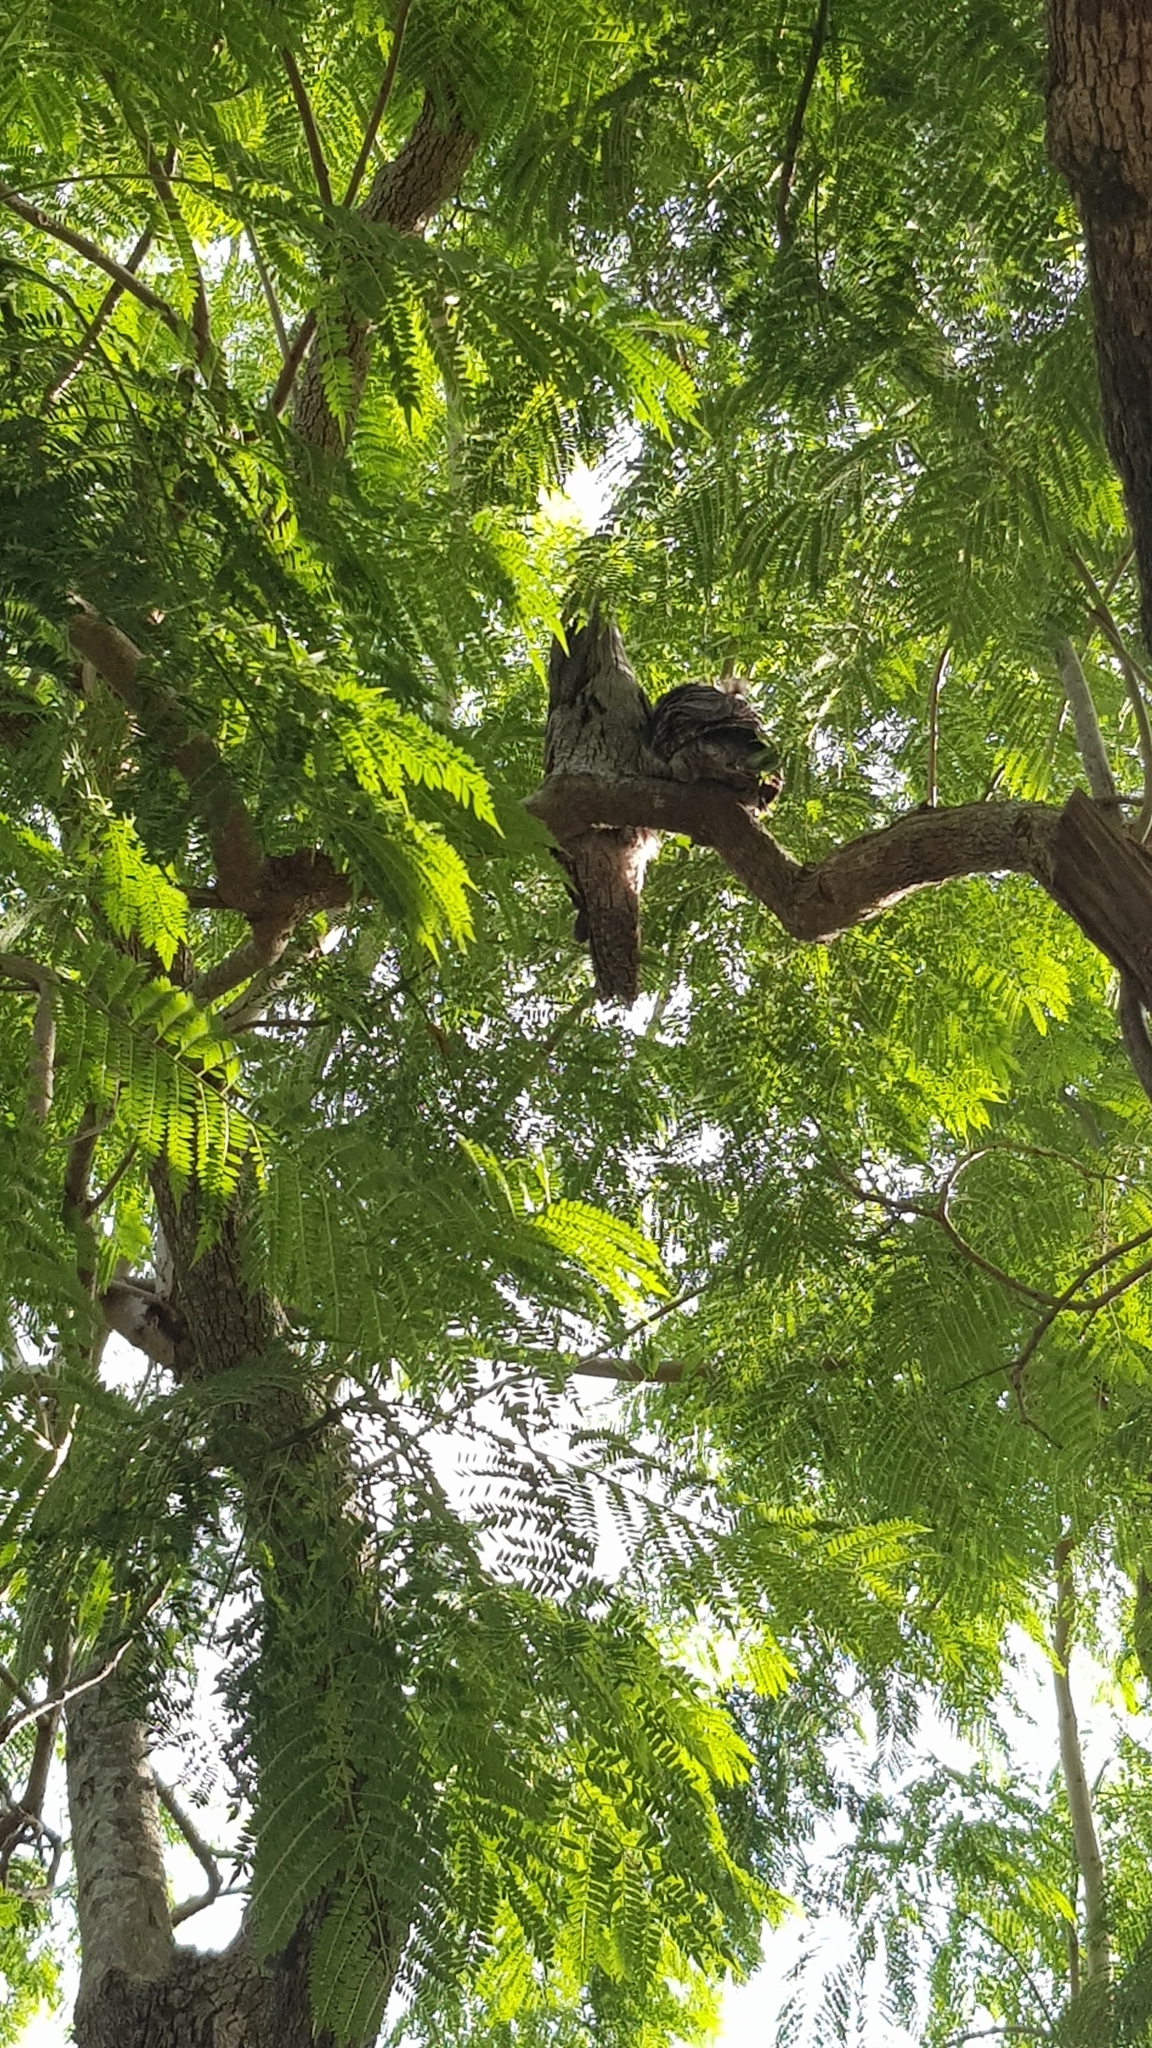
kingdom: Animalia
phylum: Chordata
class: Aves
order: Caprimulgiformes
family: Podargidae
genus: Podargus
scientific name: Podargus strigoides
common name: Tawny frogmouth
